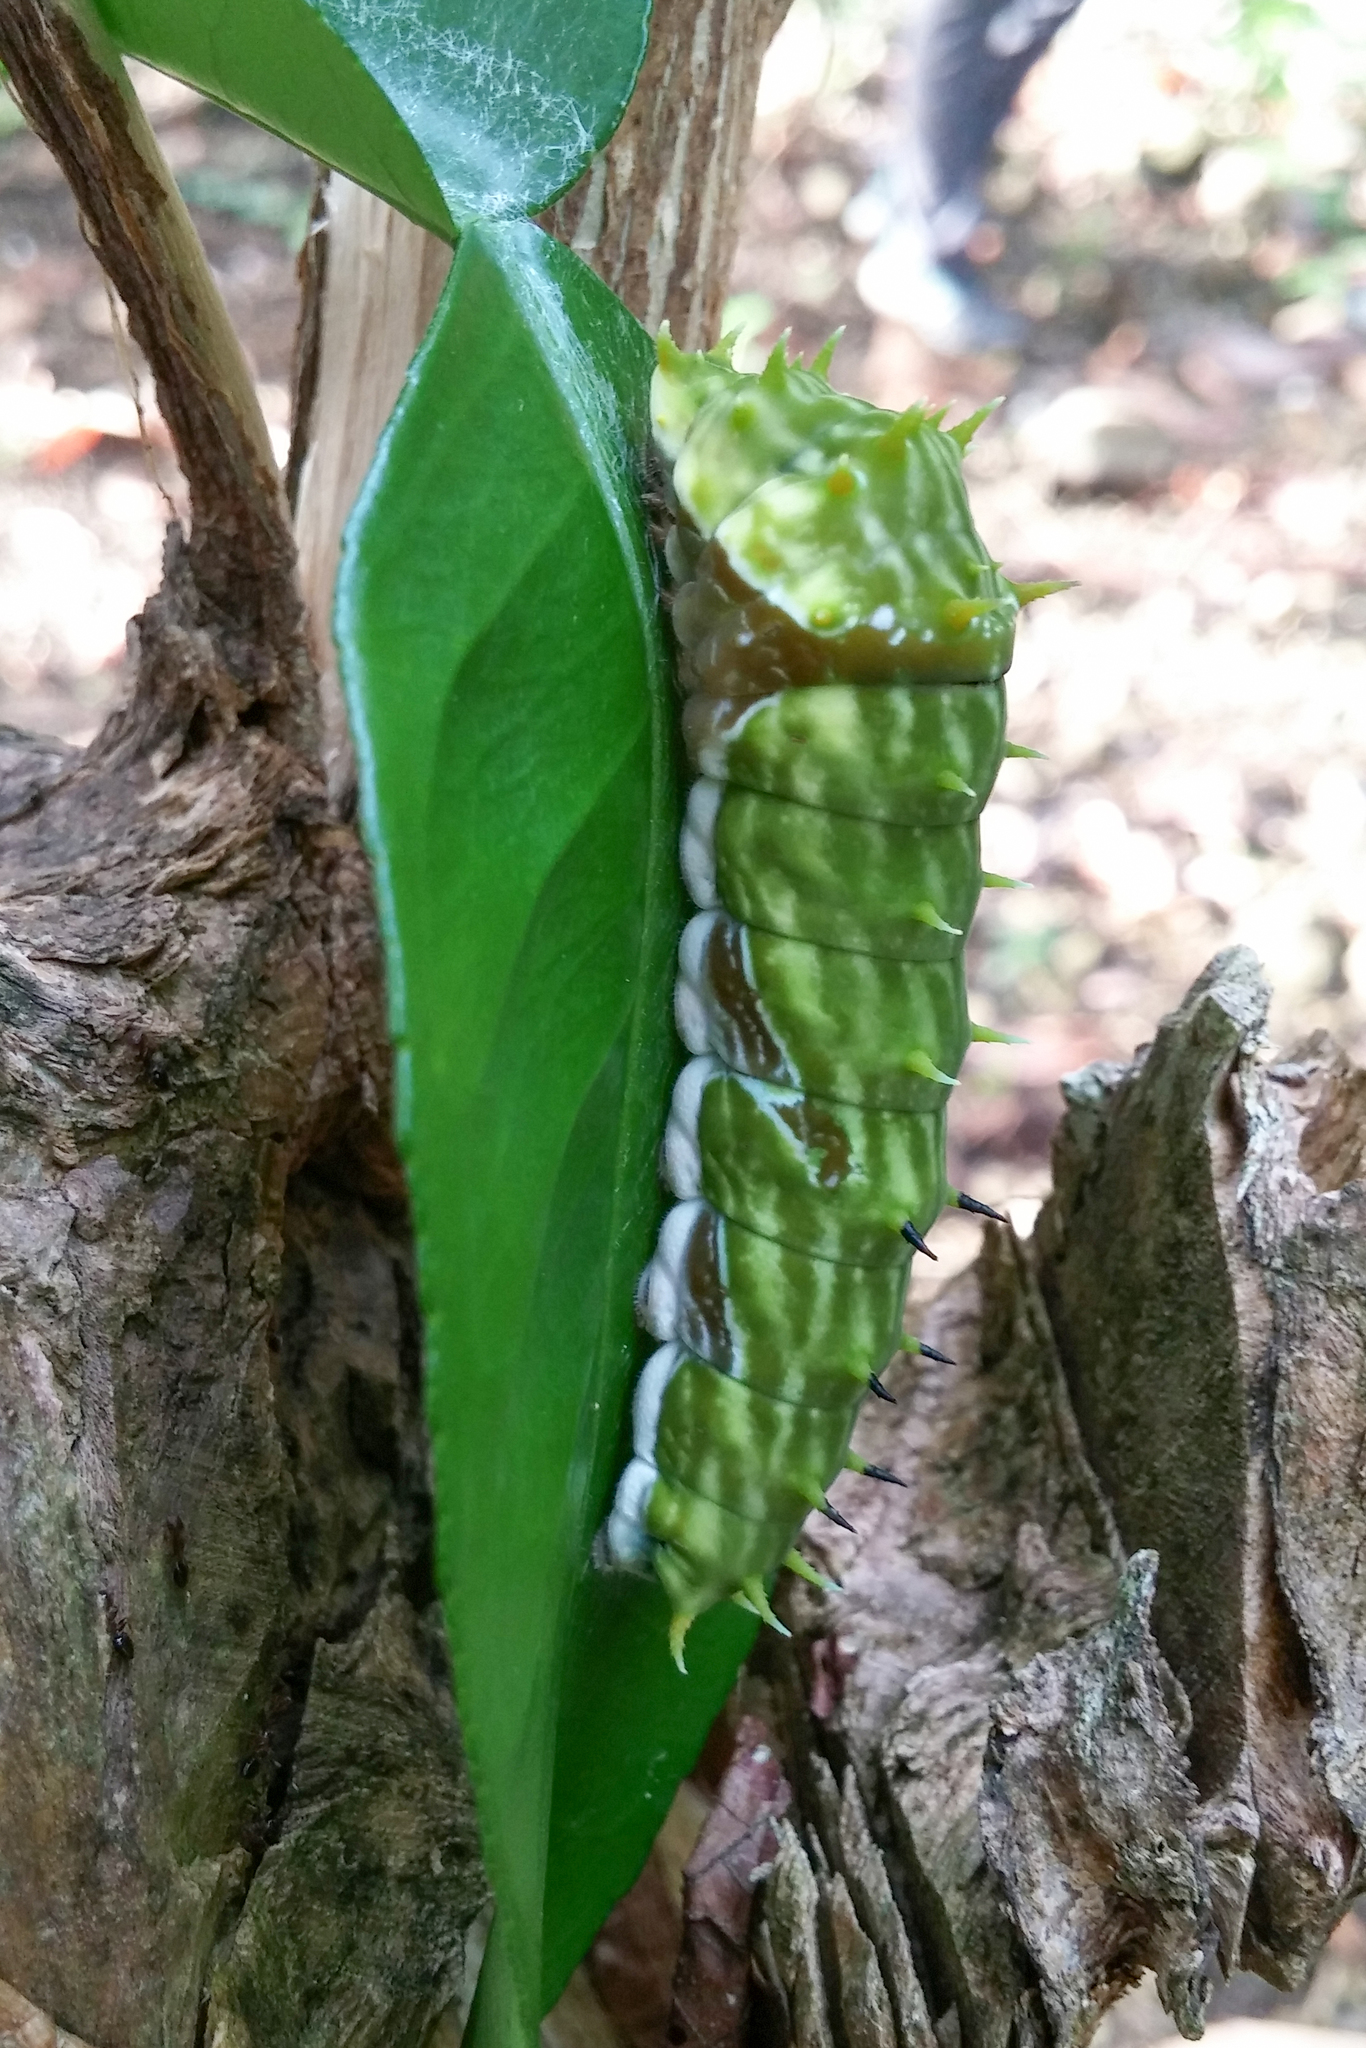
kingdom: Animalia
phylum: Arthropoda
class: Insecta
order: Lepidoptera
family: Papilionidae
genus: Papilio
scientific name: Papilio aegeus
